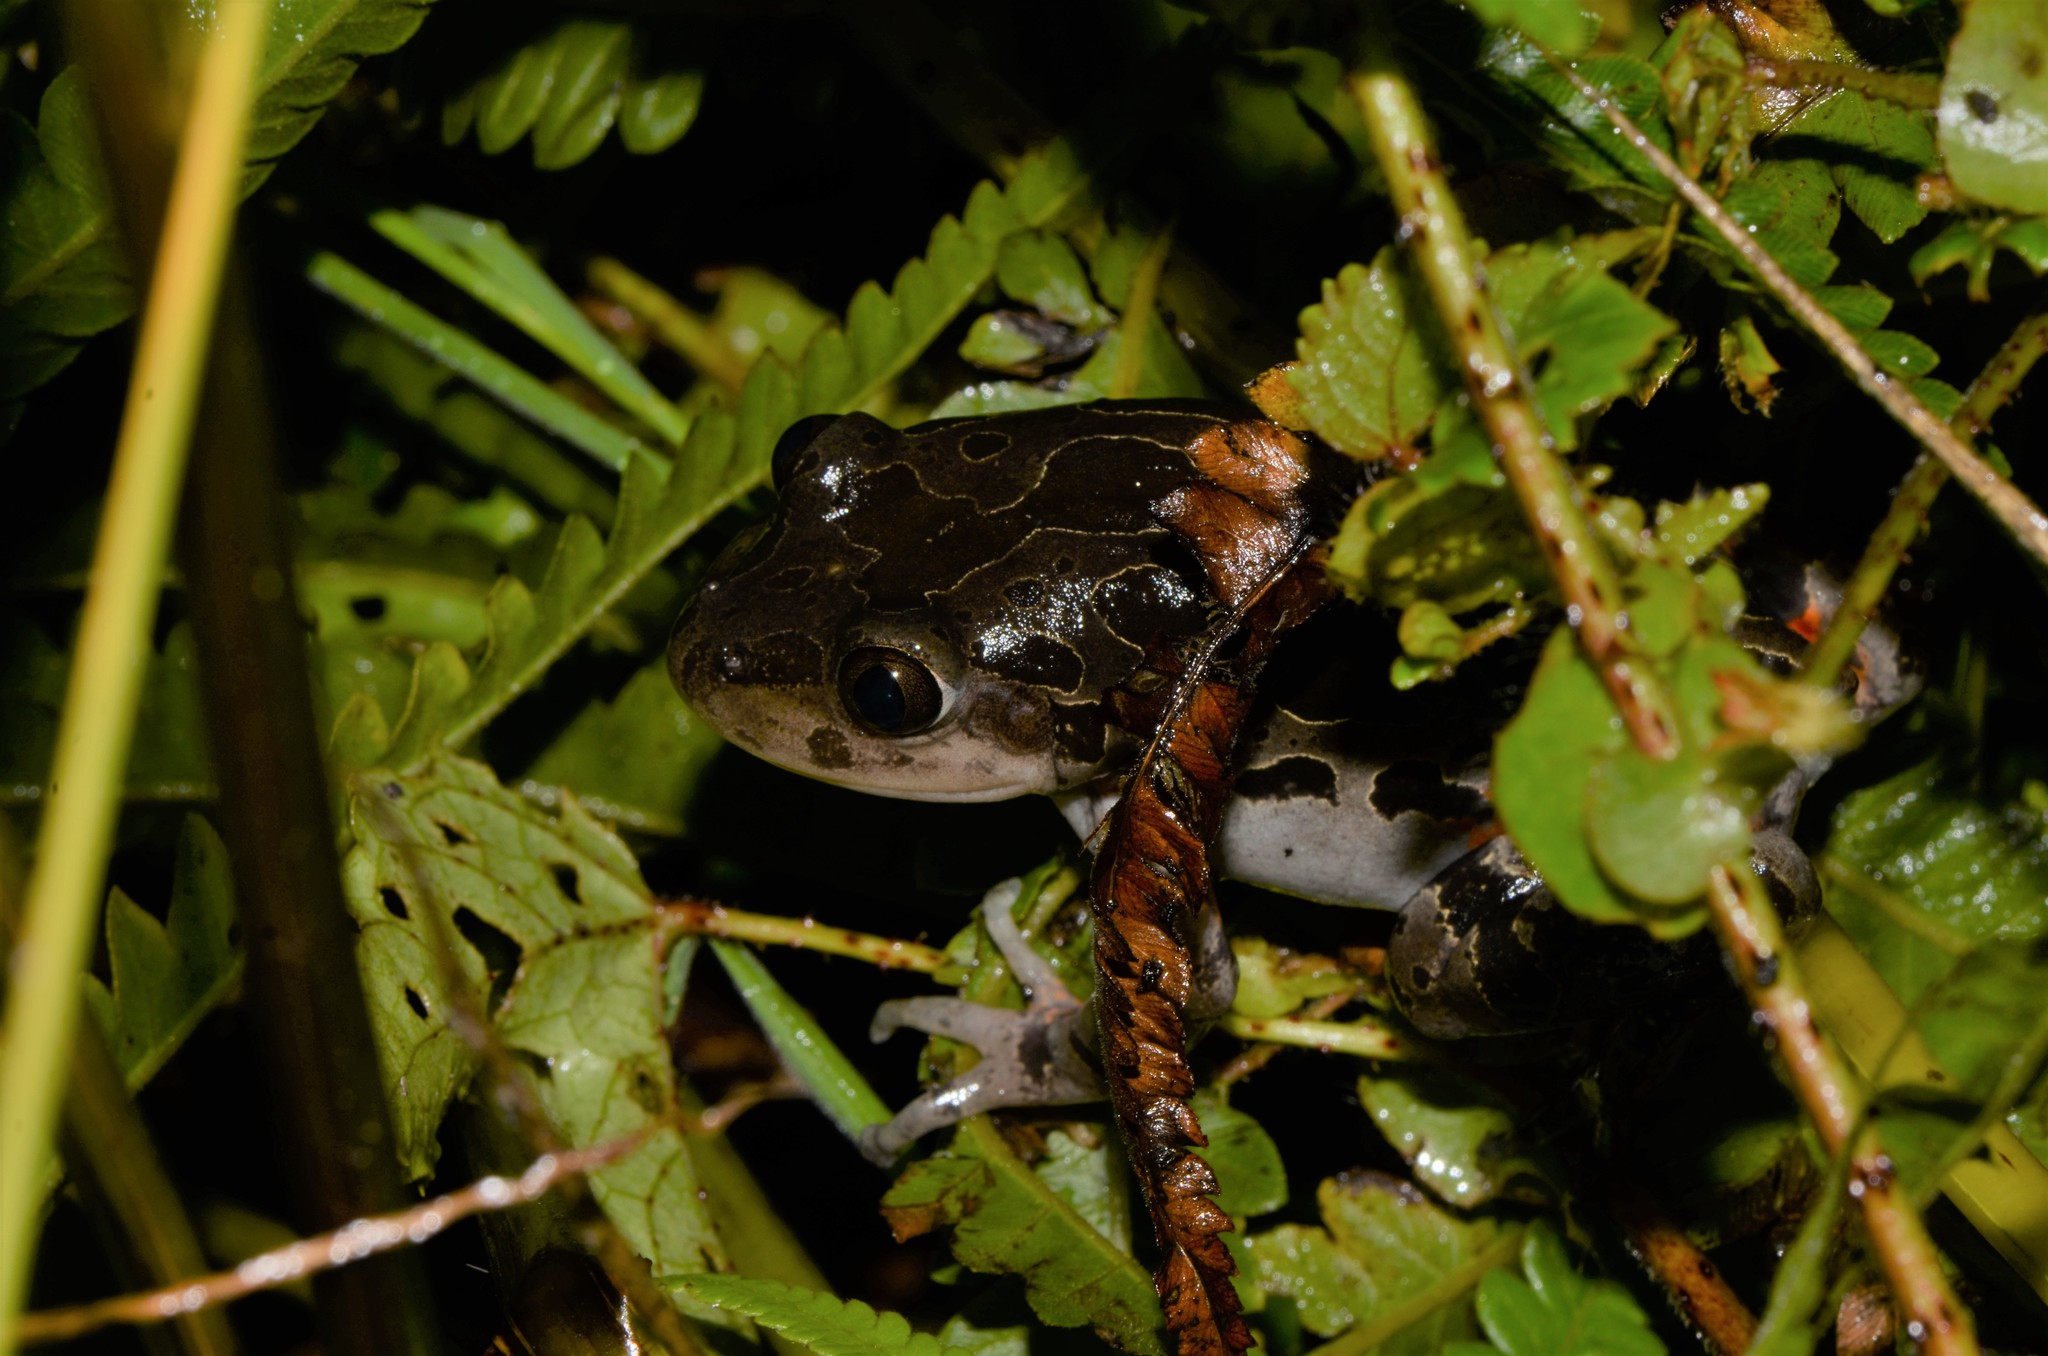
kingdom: Animalia
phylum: Chordata
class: Amphibia
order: Anura
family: Hyperoliidae
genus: Phlyctimantis
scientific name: Phlyctimantis maculatus
